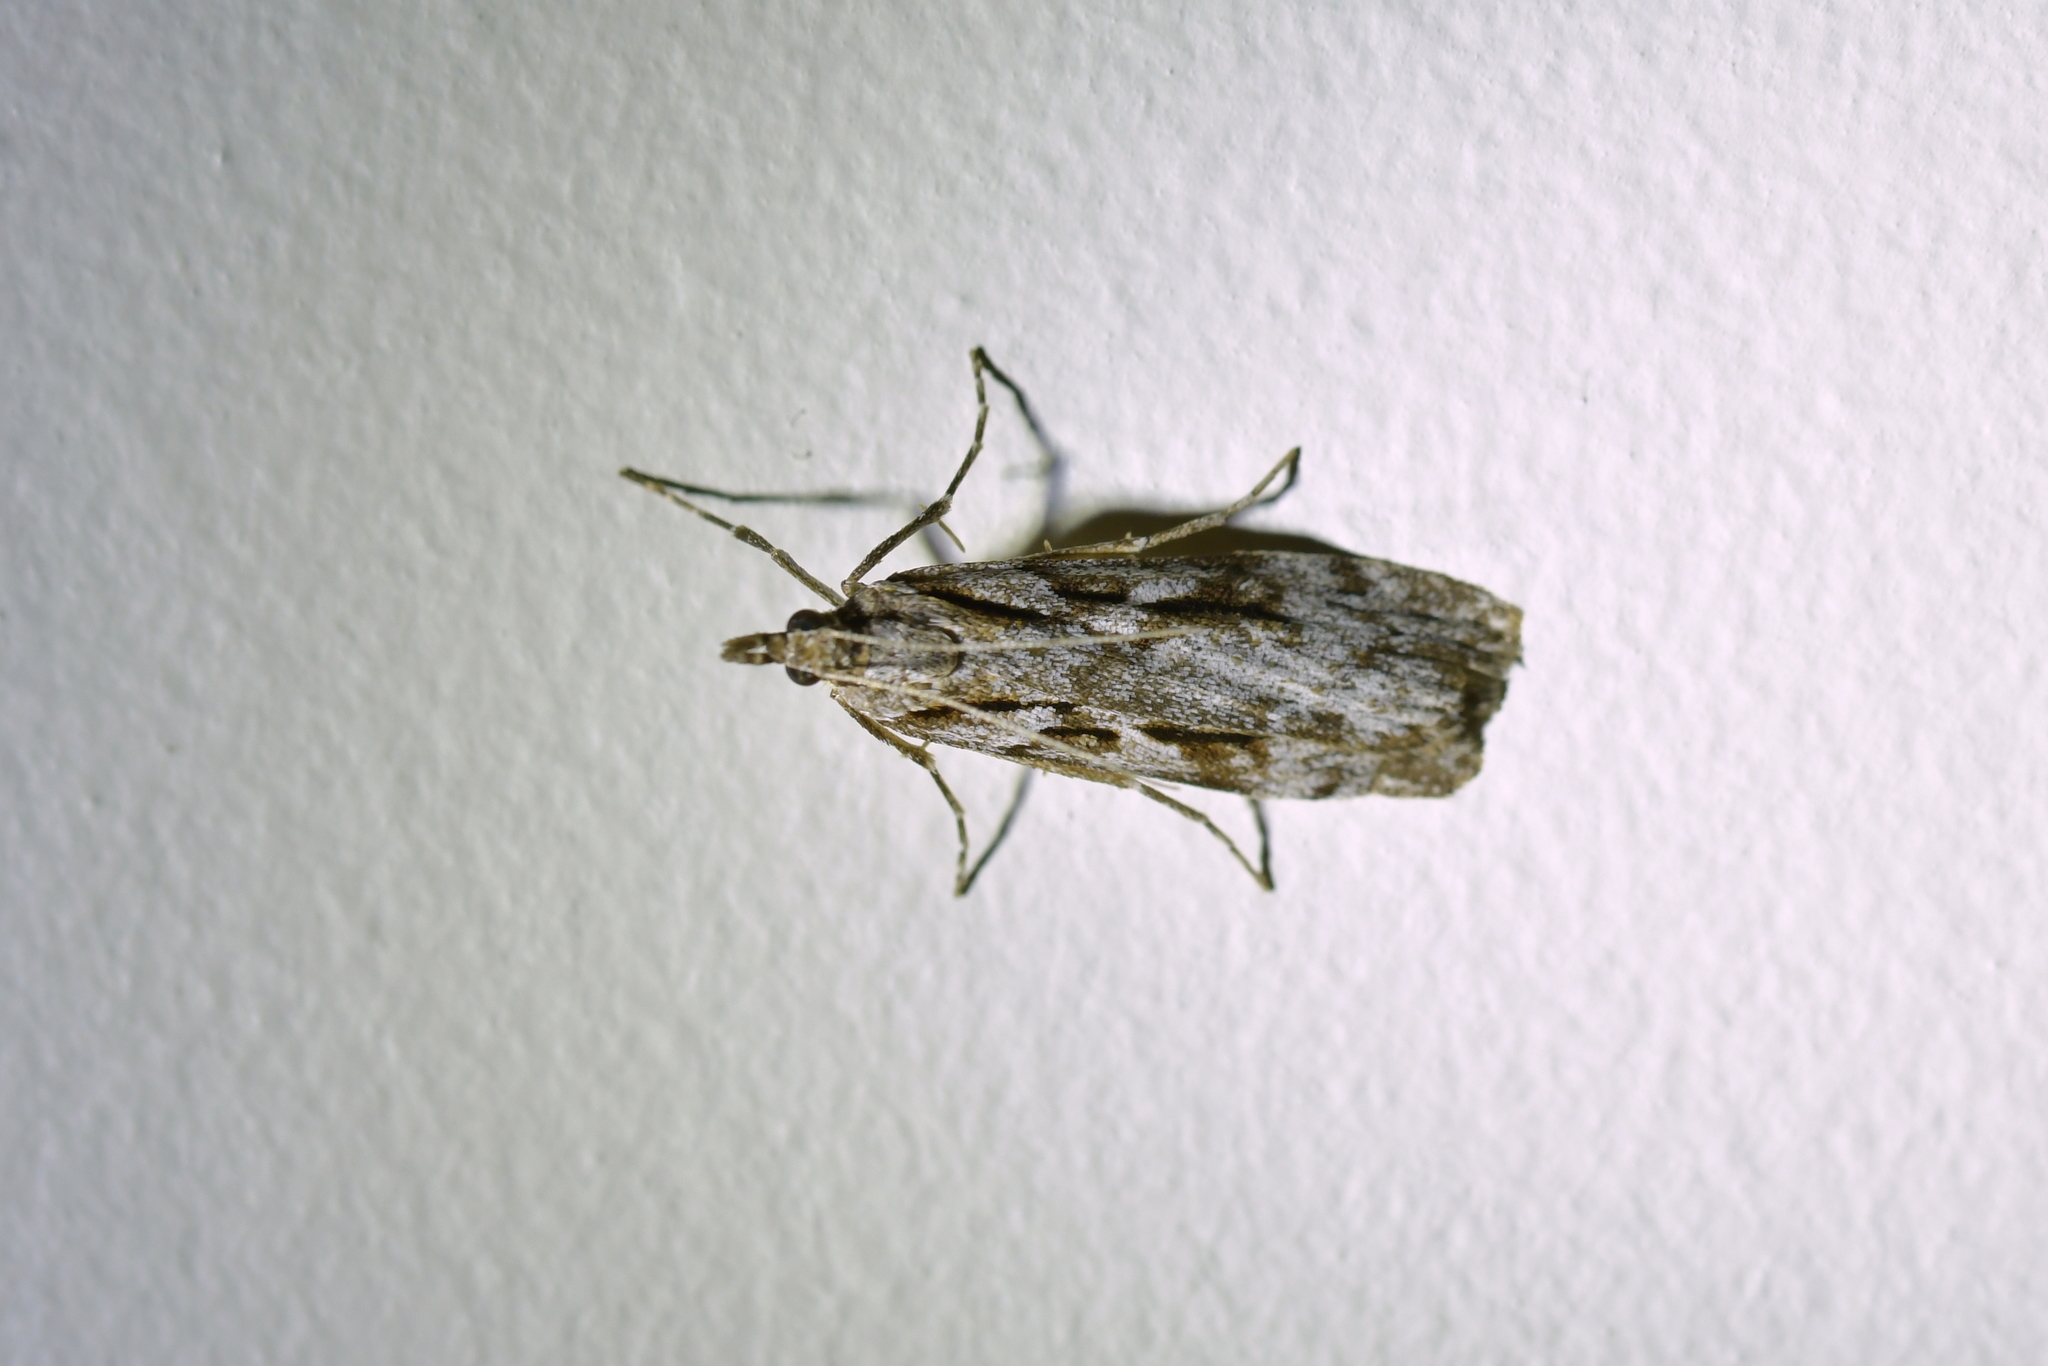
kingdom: Animalia
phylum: Arthropoda
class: Insecta
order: Lepidoptera
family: Crambidae
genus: Scoparia
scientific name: Scoparia cyameuta
